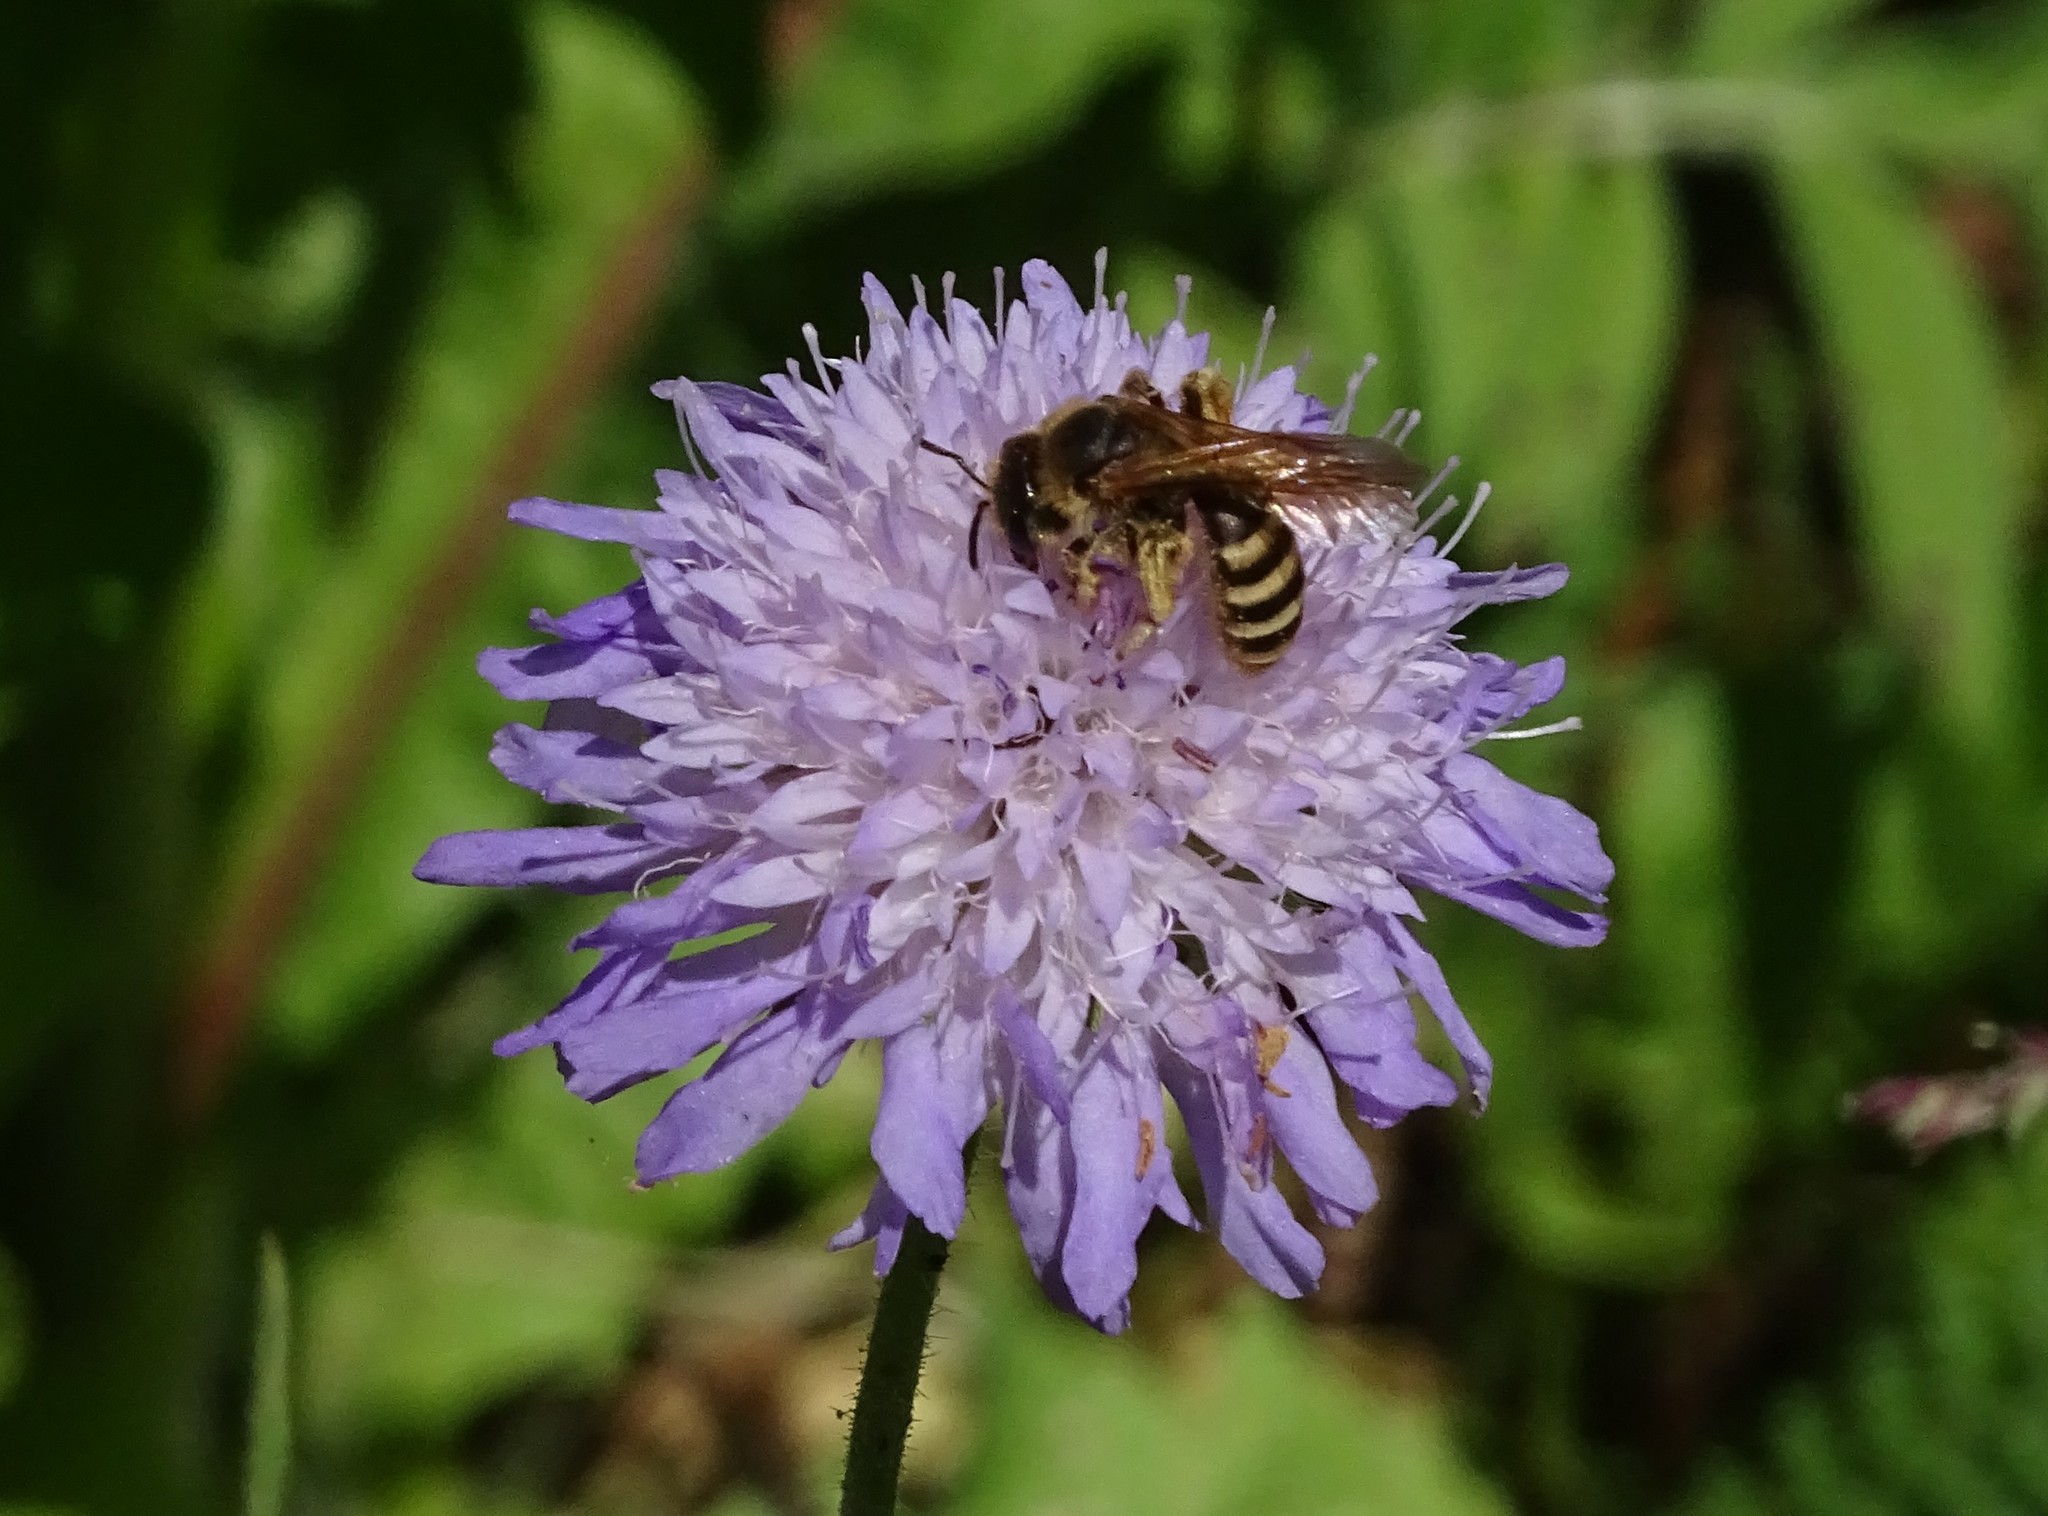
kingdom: Animalia
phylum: Arthropoda
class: Insecta
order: Hymenoptera
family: Halictidae
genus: Halictus
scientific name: Halictus scabiosae
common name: Great banded furrow bee
